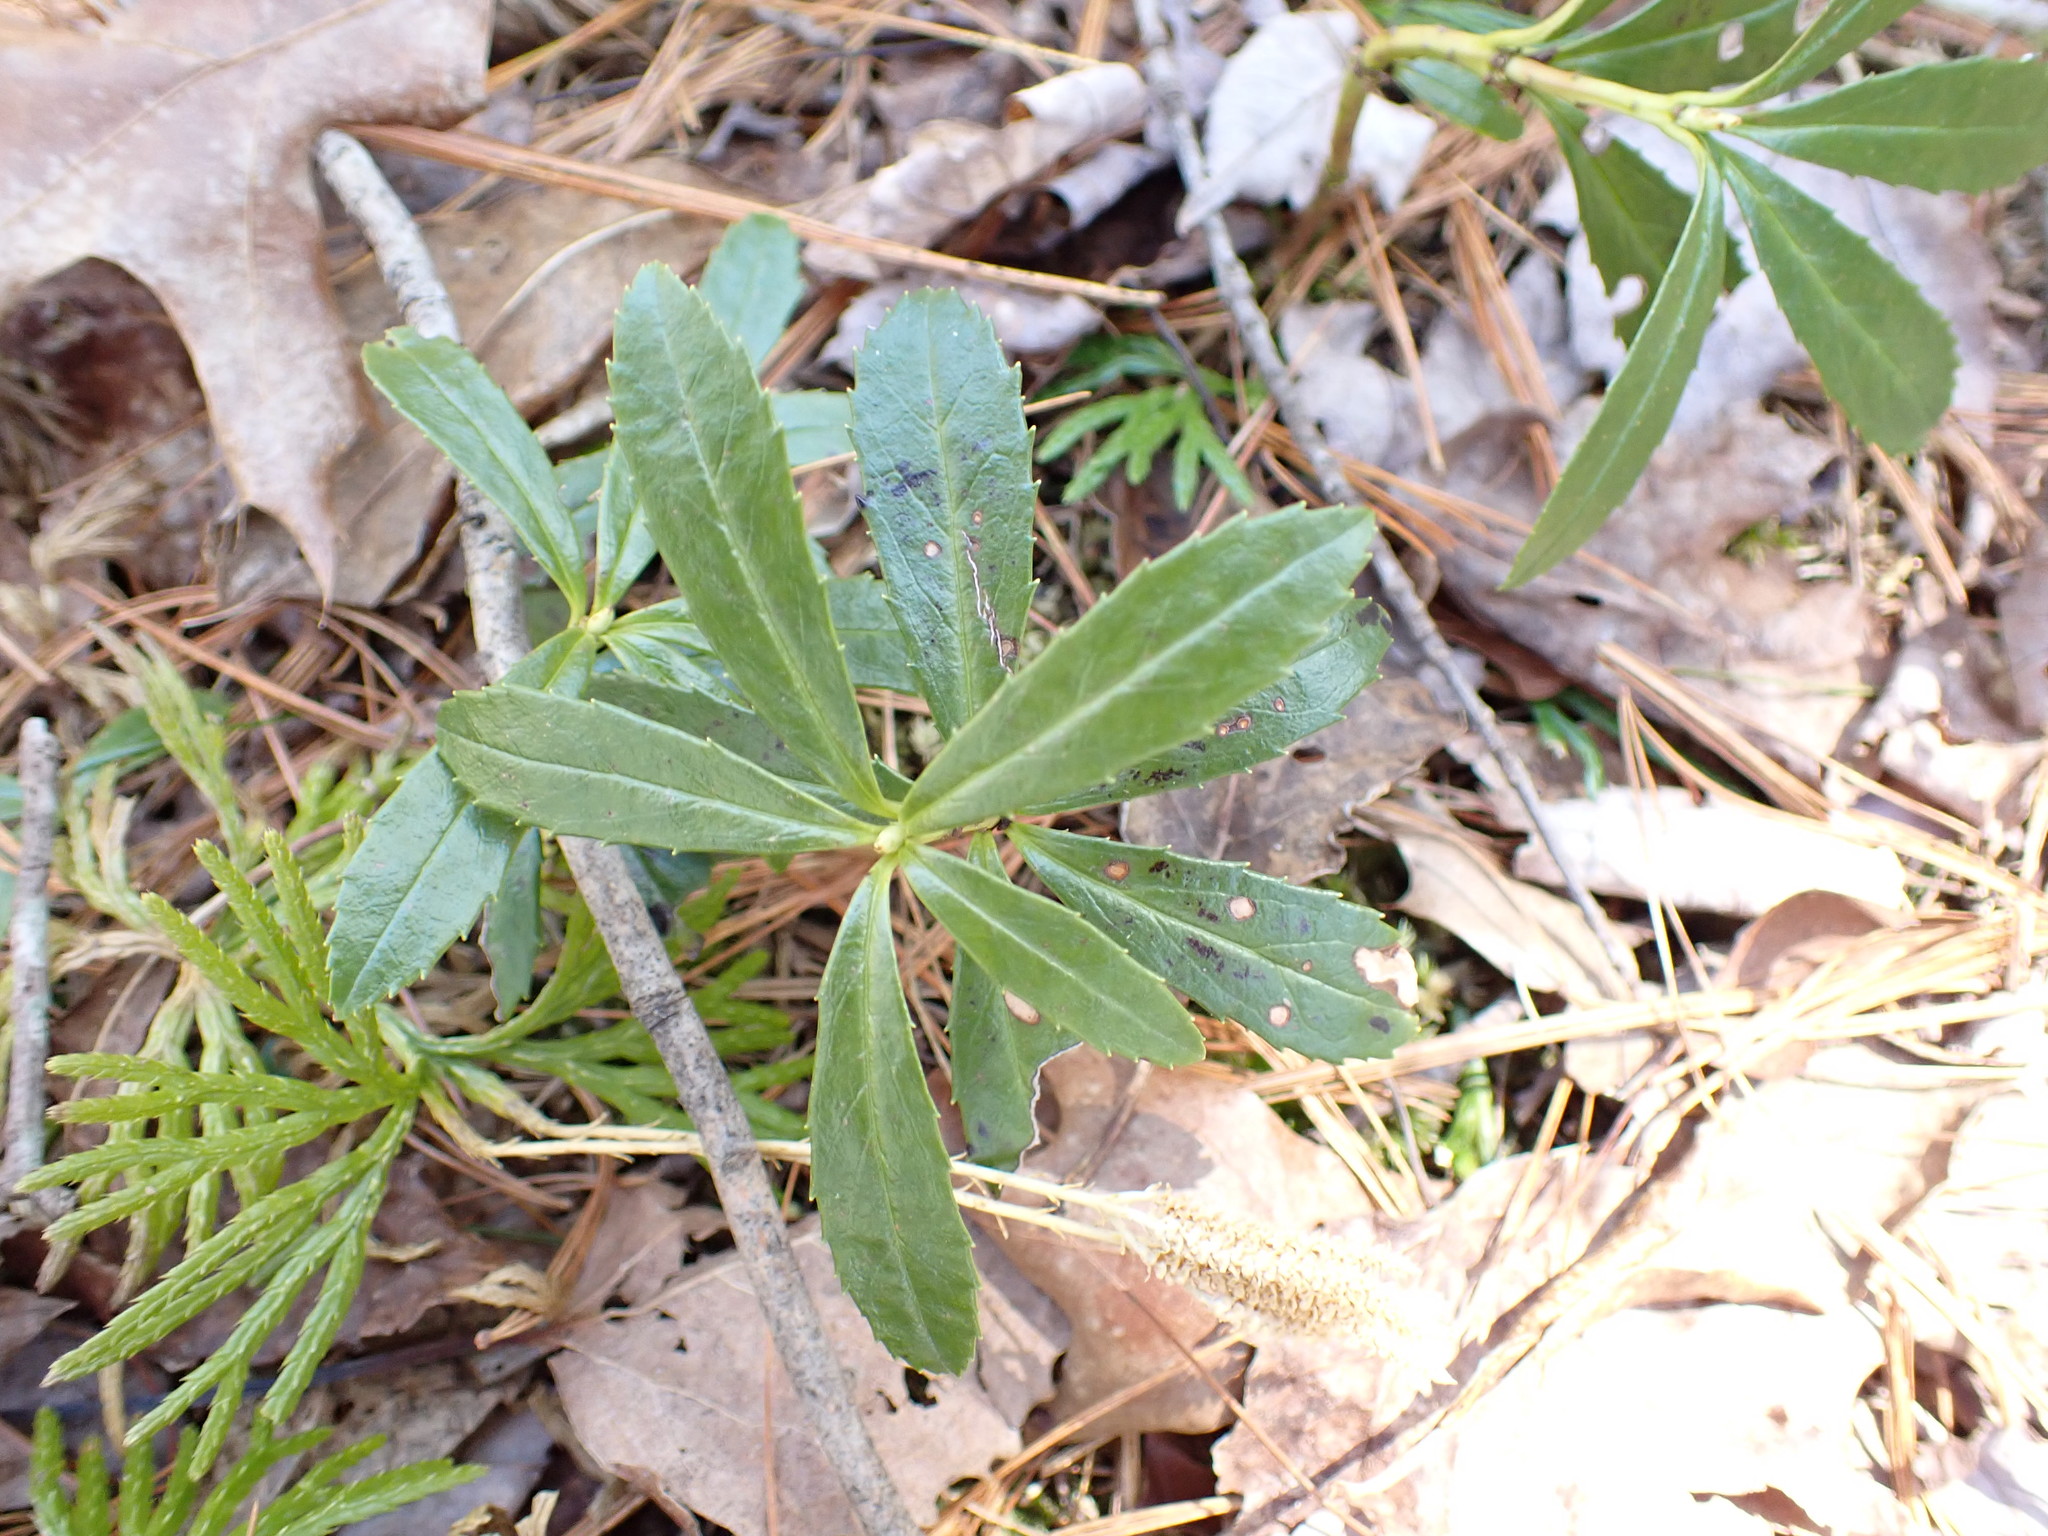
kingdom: Plantae
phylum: Tracheophyta
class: Magnoliopsida
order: Ericales
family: Ericaceae
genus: Chimaphila
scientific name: Chimaphila umbellata
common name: Pipsissewa
